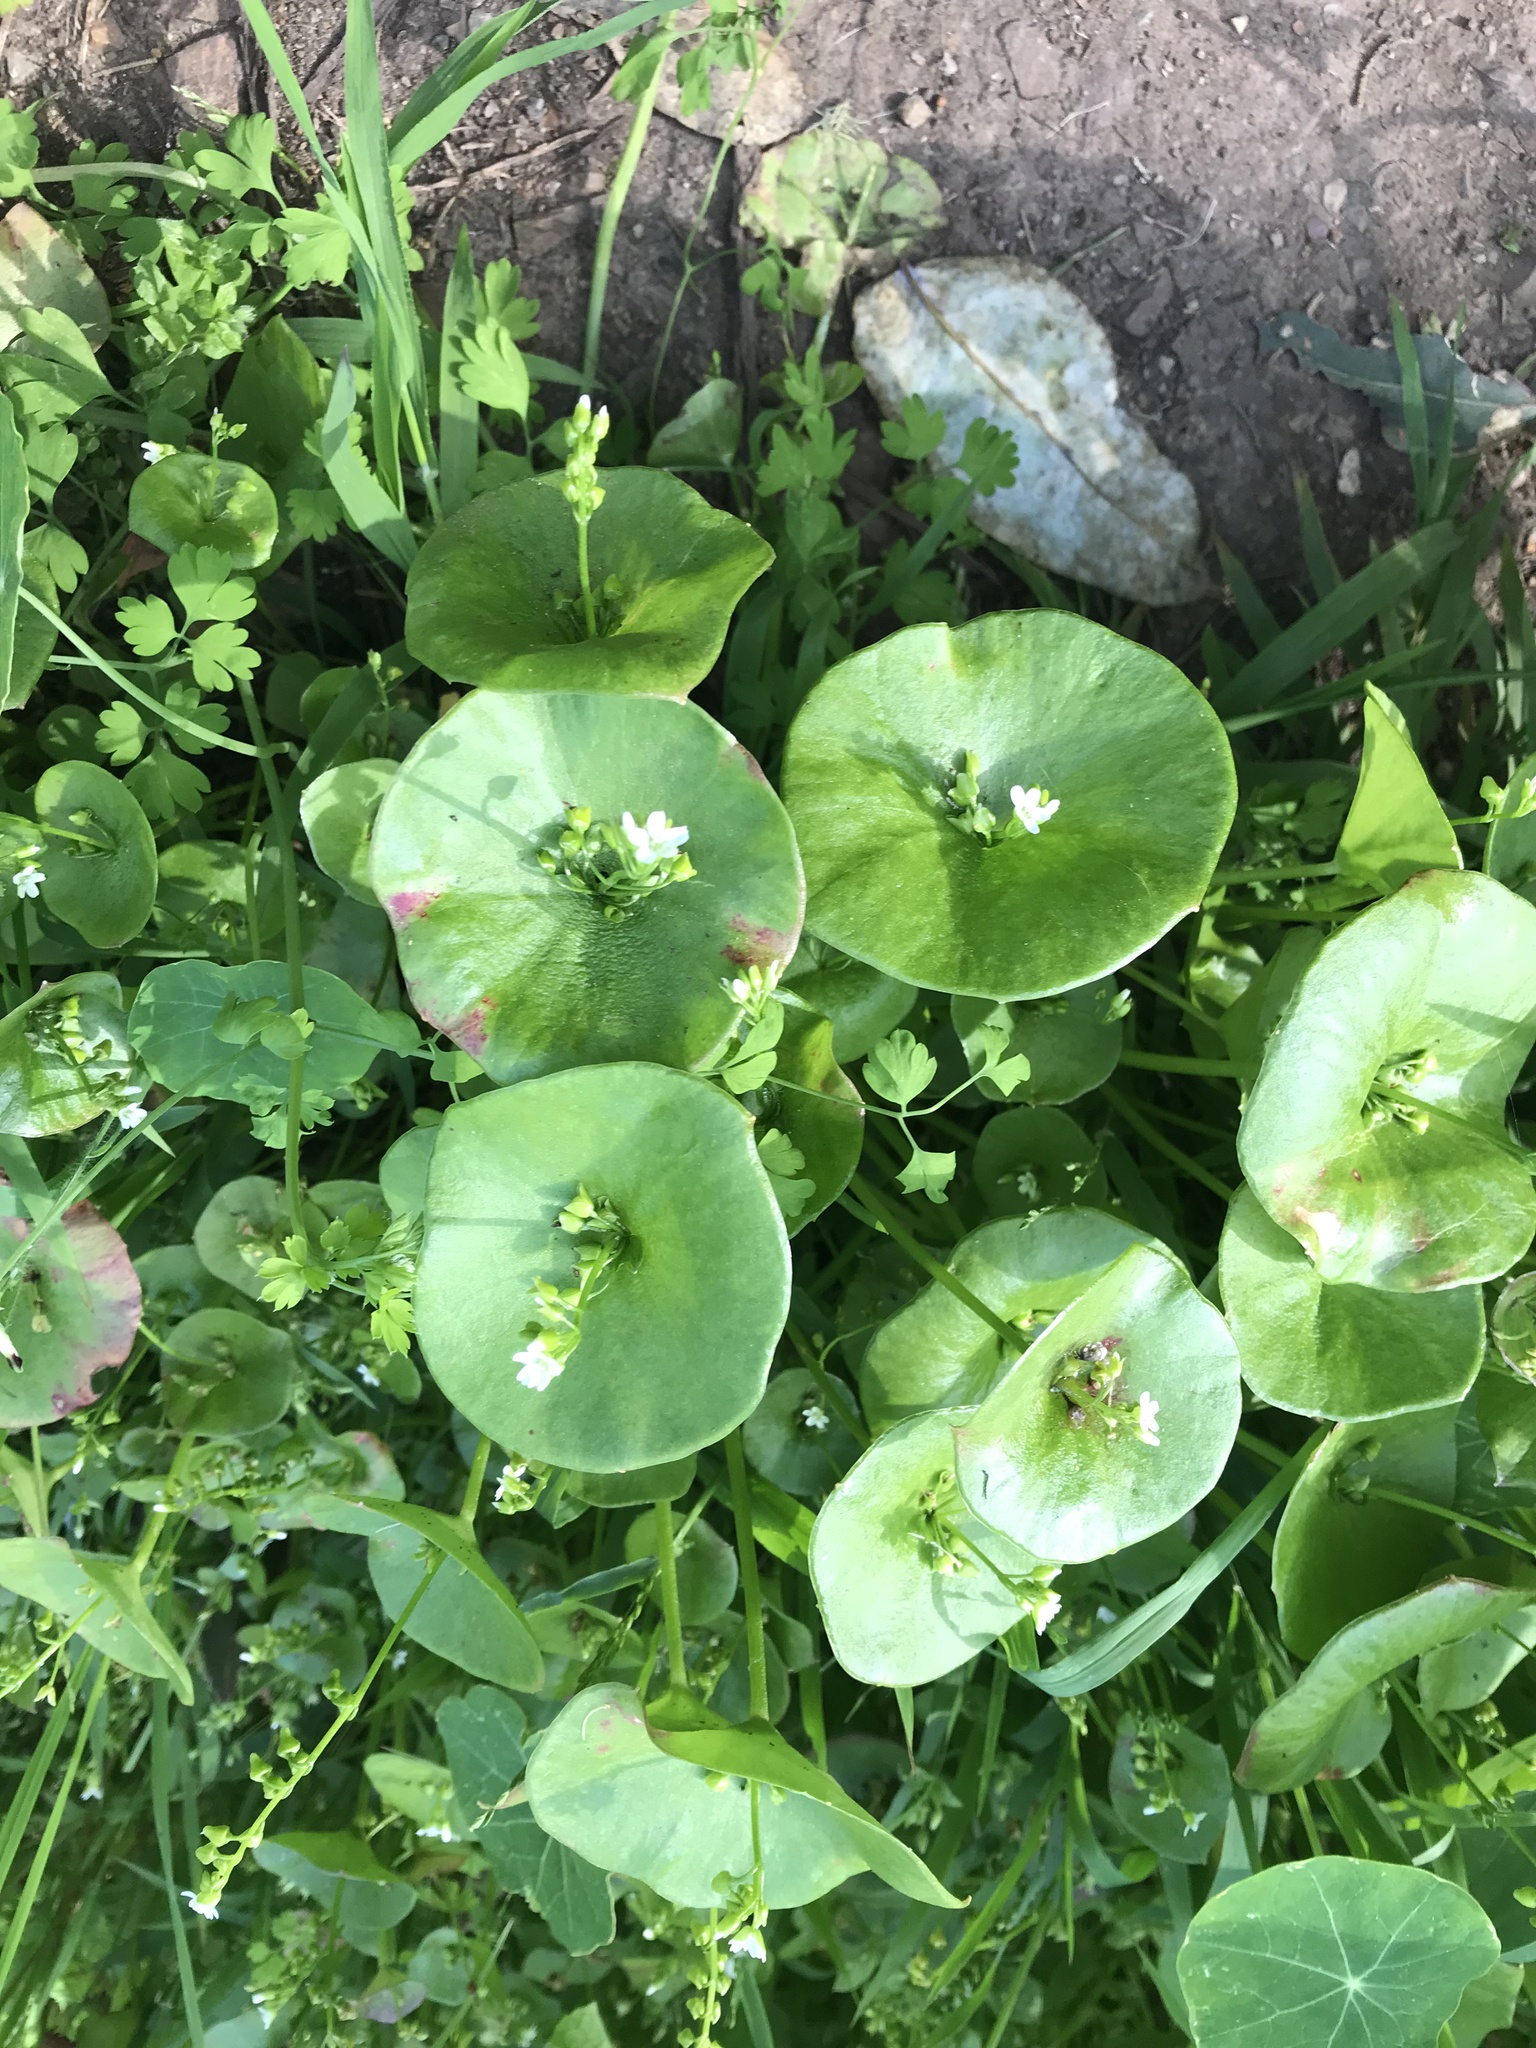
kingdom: Plantae
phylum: Tracheophyta
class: Magnoliopsida
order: Caryophyllales
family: Montiaceae
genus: Claytonia
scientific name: Claytonia perfoliata
